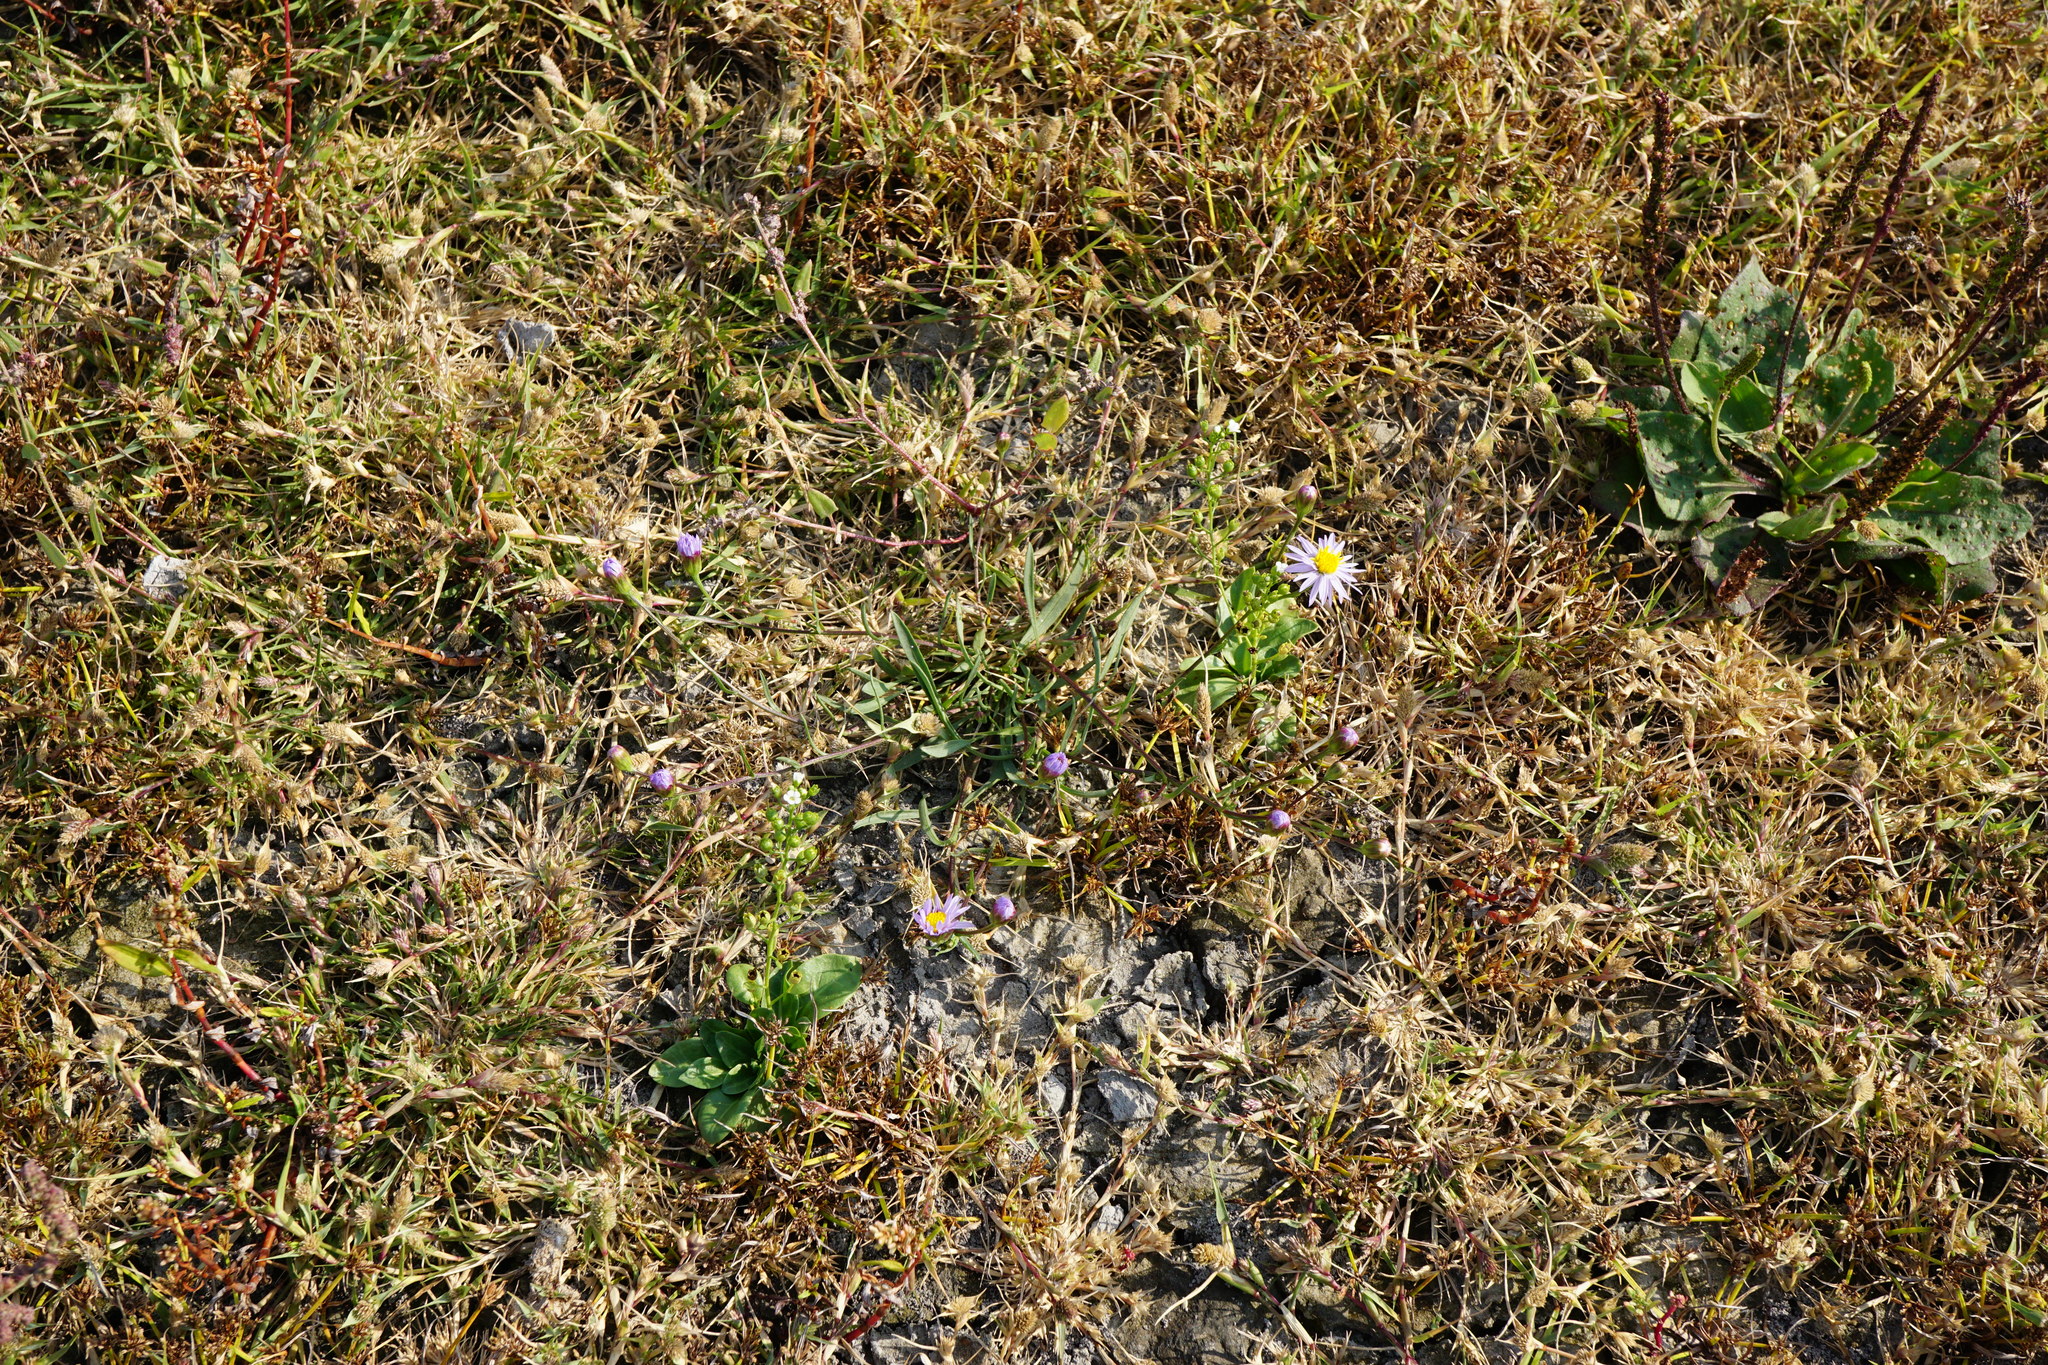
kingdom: Plantae
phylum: Tracheophyta
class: Magnoliopsida
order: Asterales
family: Asteraceae
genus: Tripolium
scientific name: Tripolium pannonicum
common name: Sea aster
